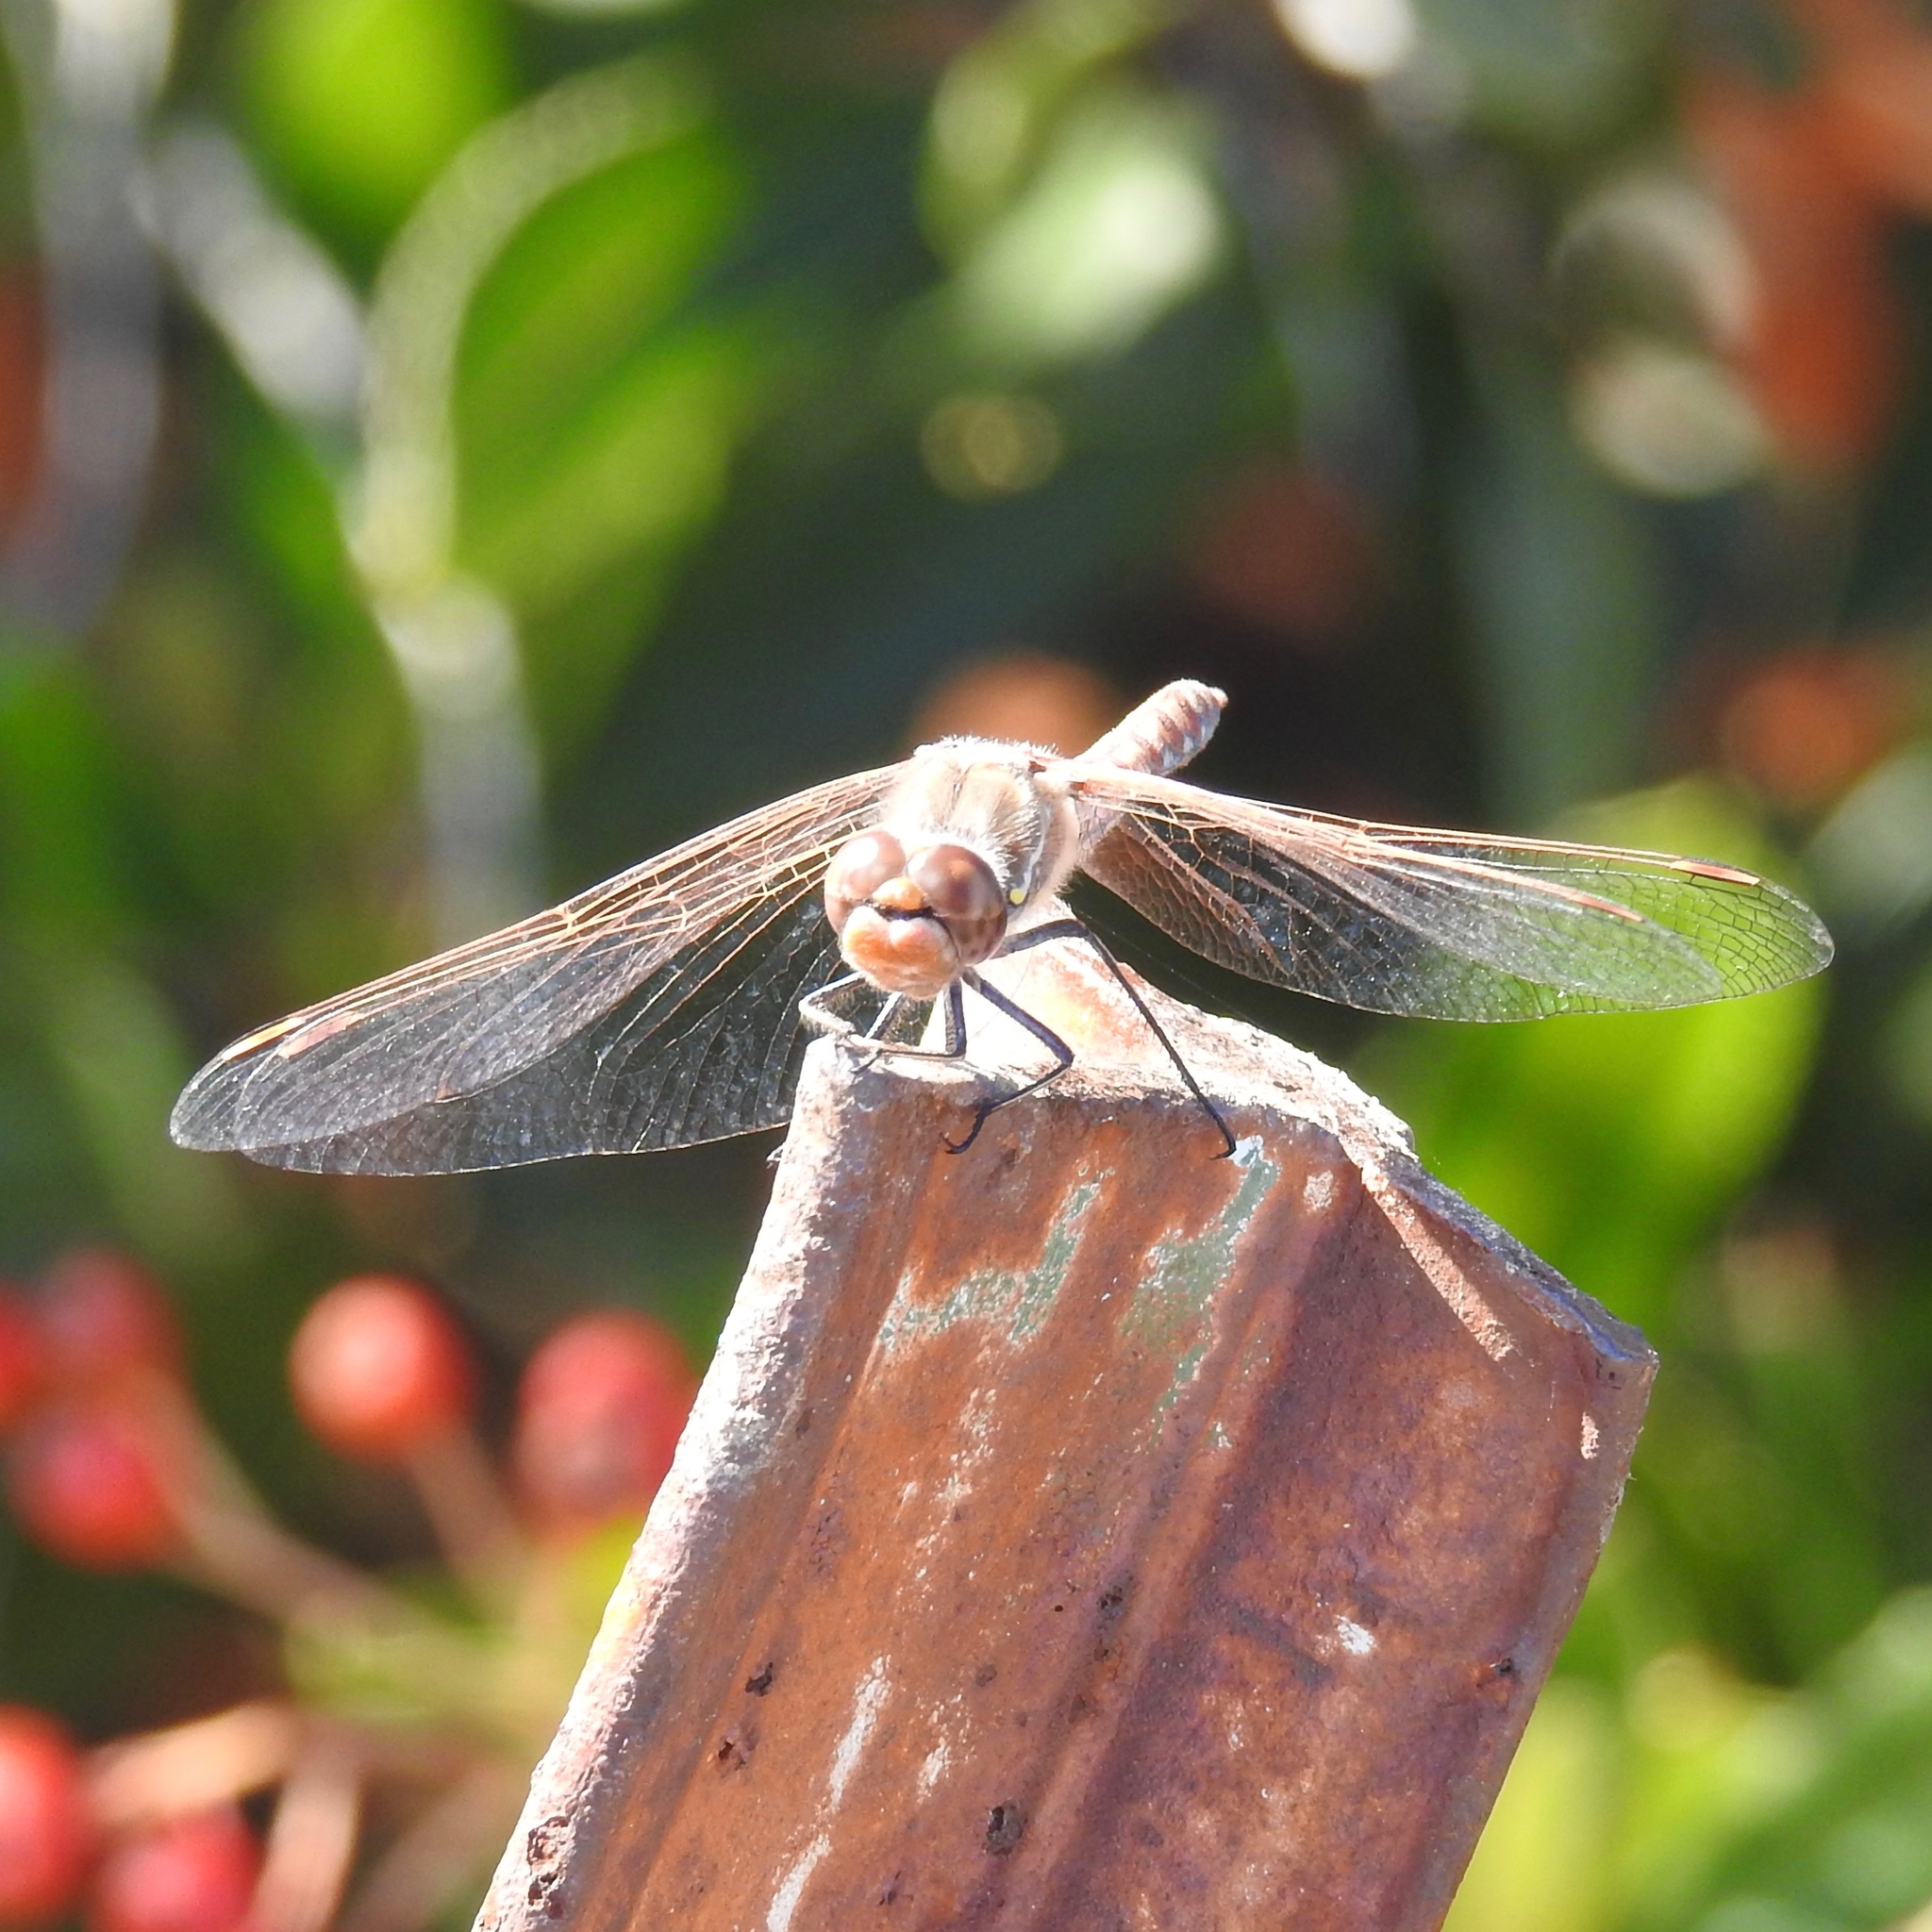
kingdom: Animalia
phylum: Arthropoda
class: Insecta
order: Odonata
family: Libellulidae
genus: Sympetrum
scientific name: Sympetrum corruptum
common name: Variegated meadowhawk
